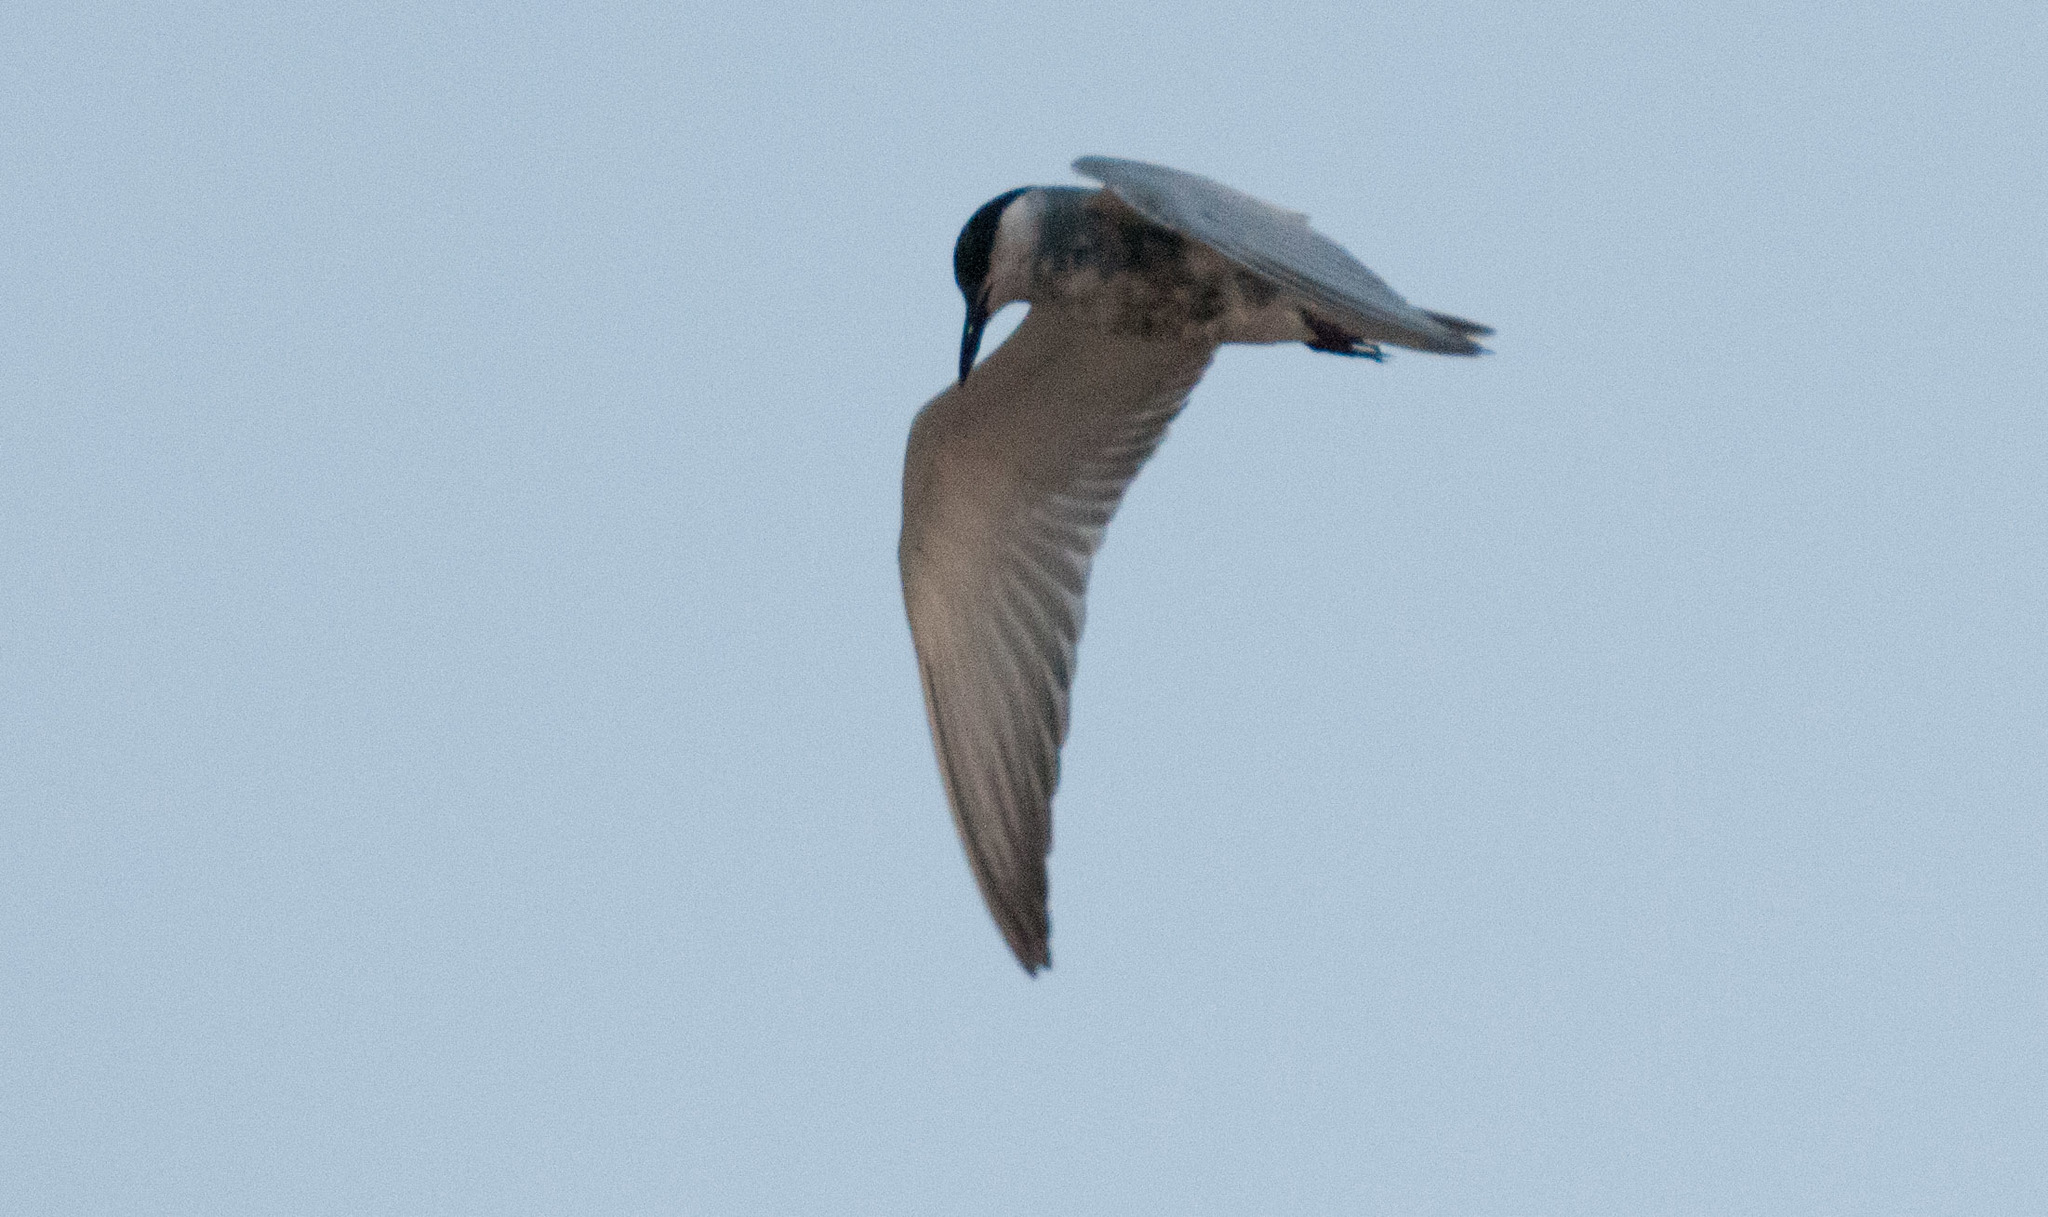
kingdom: Animalia
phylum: Chordata
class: Aves
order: Charadriiformes
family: Laridae
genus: Chlidonias
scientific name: Chlidonias hybrida
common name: Whiskered tern
